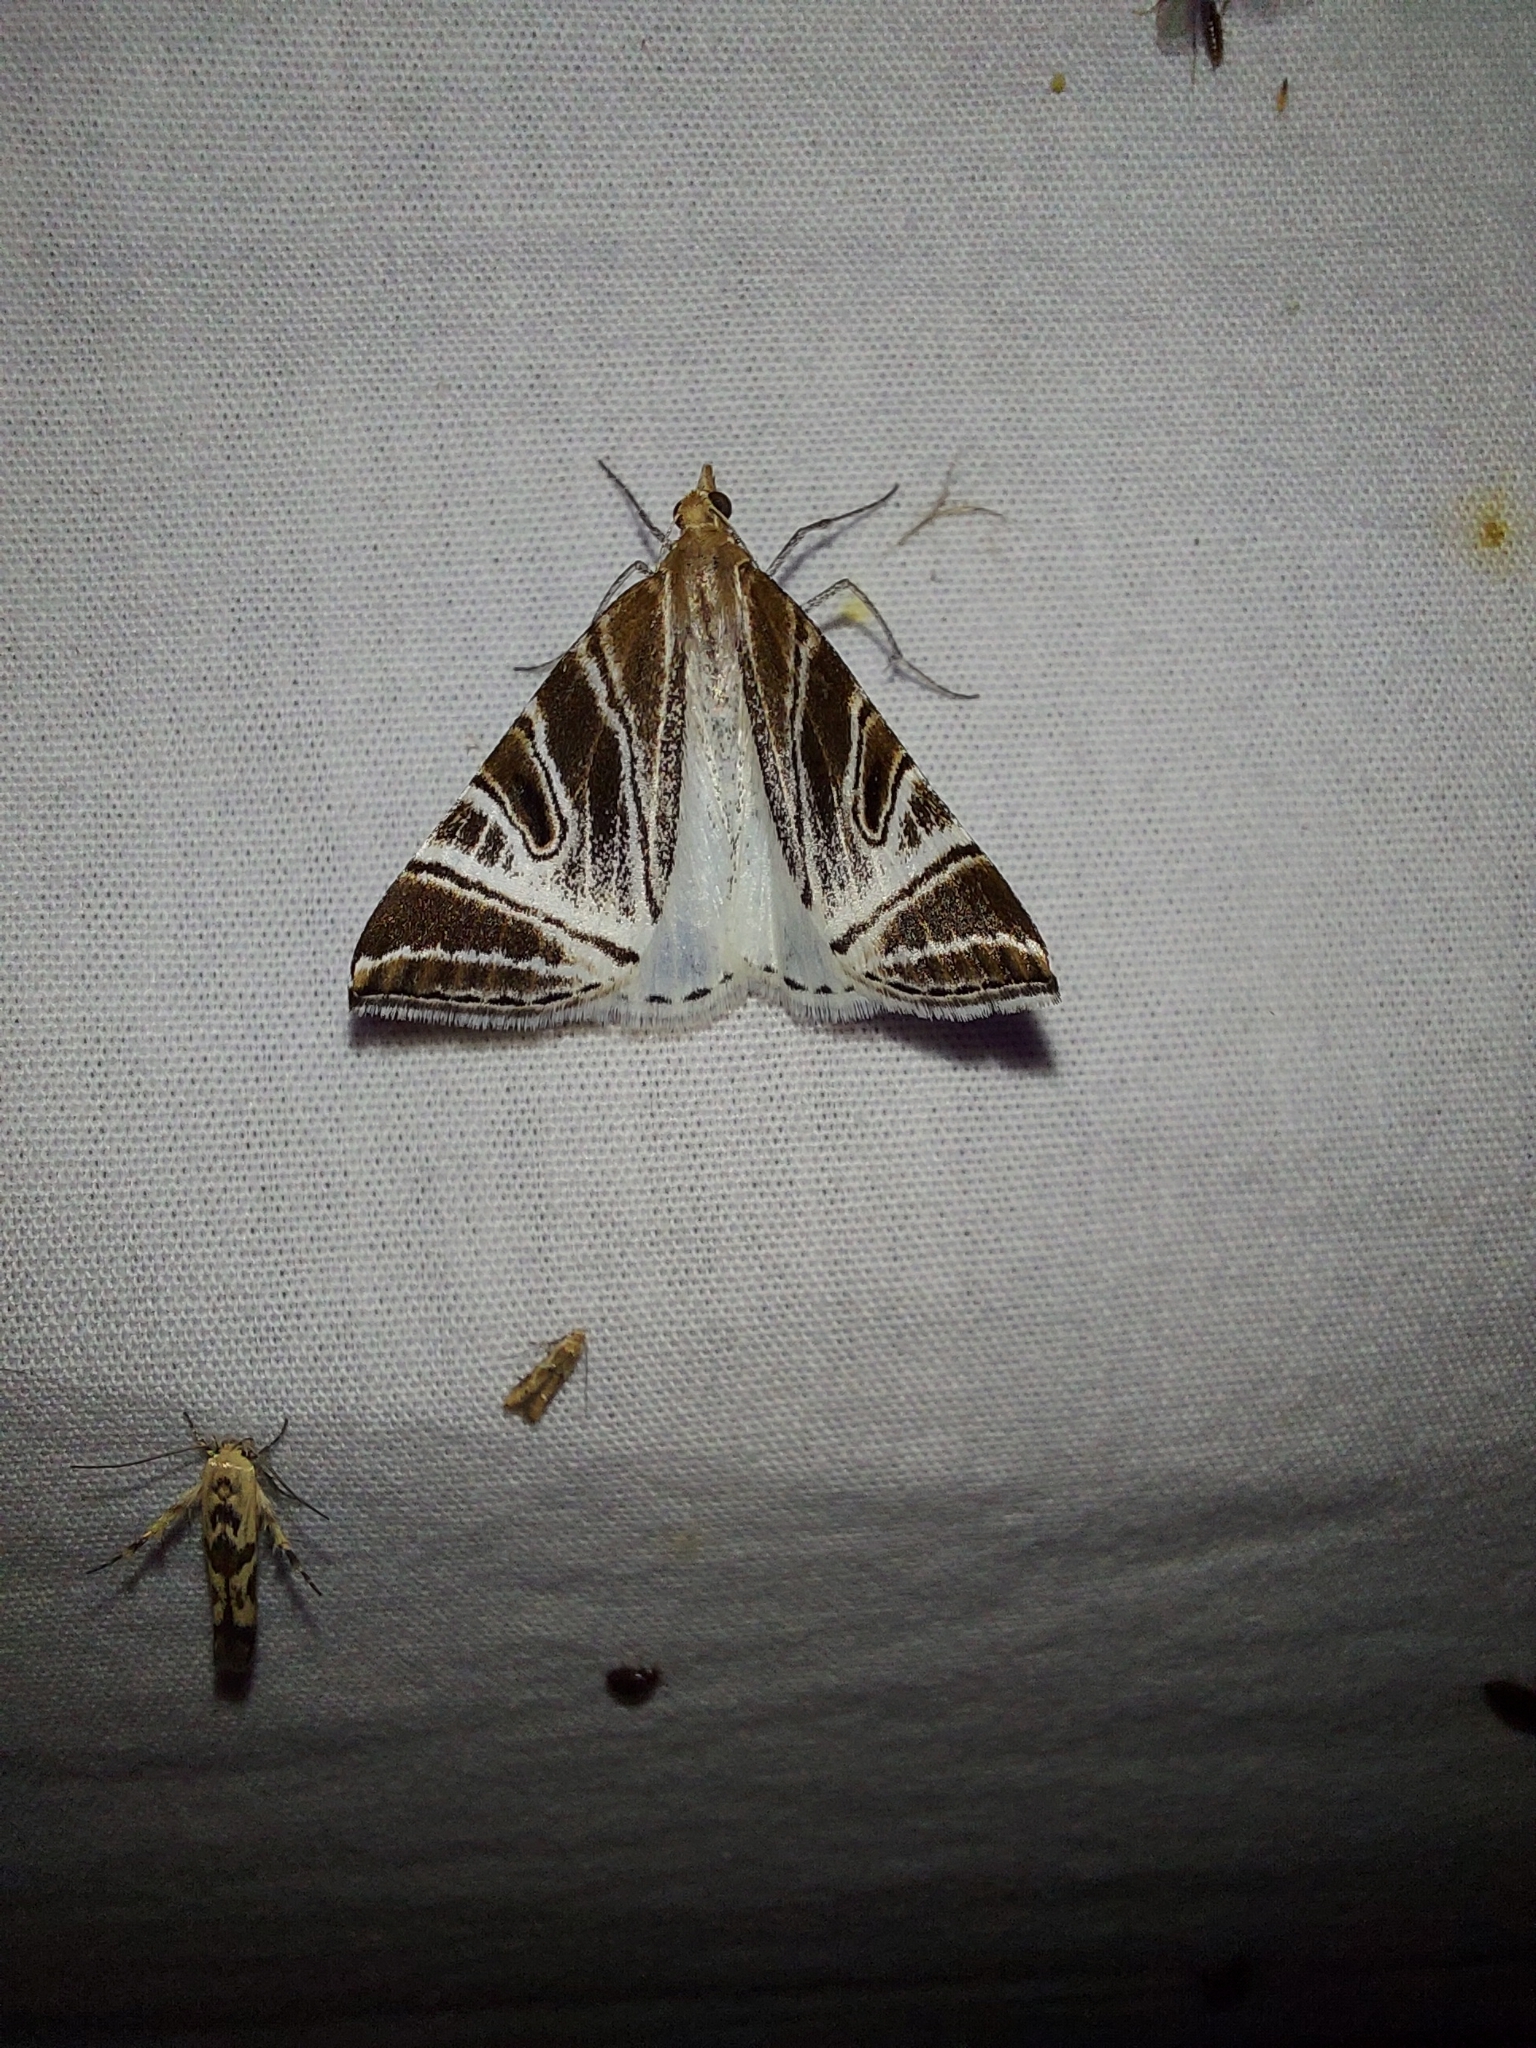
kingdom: Animalia
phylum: Arthropoda
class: Insecta
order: Lepidoptera
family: Geometridae
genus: Phrataria
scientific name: Phrataria replicataria
